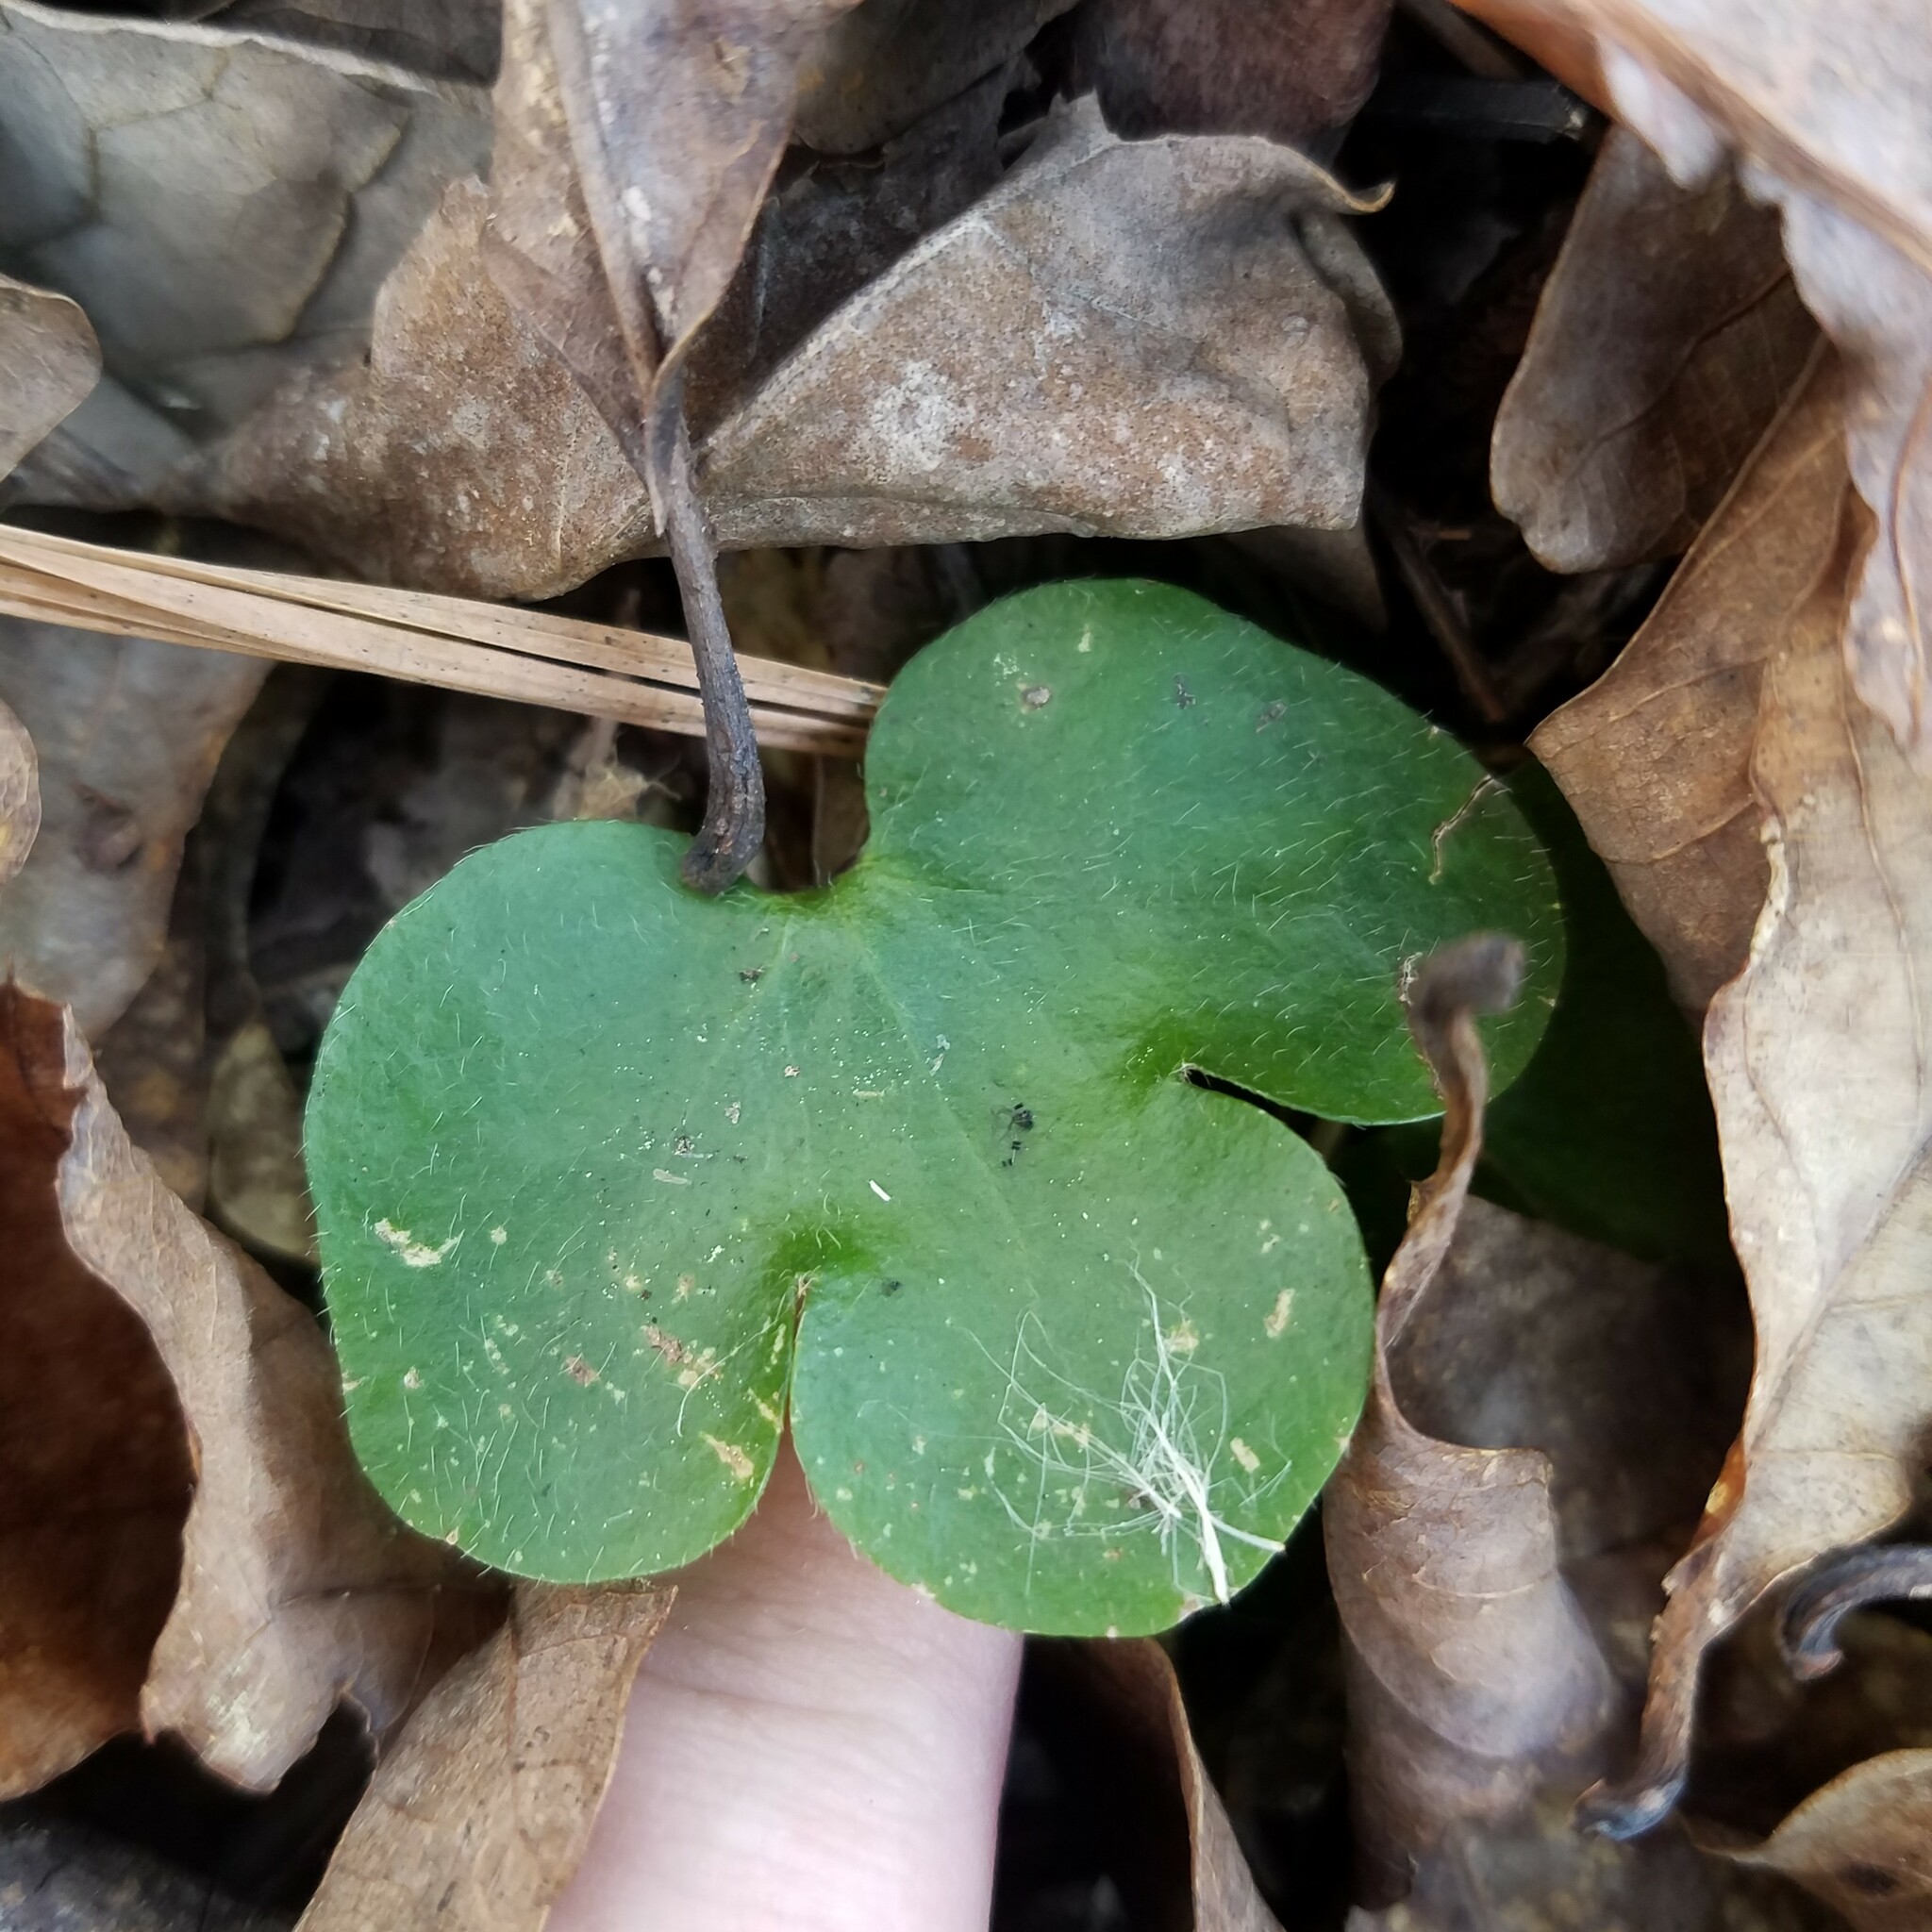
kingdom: Plantae
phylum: Tracheophyta
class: Magnoliopsida
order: Ranunculales
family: Ranunculaceae
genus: Hepatica
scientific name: Hepatica americana
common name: American hepatica
